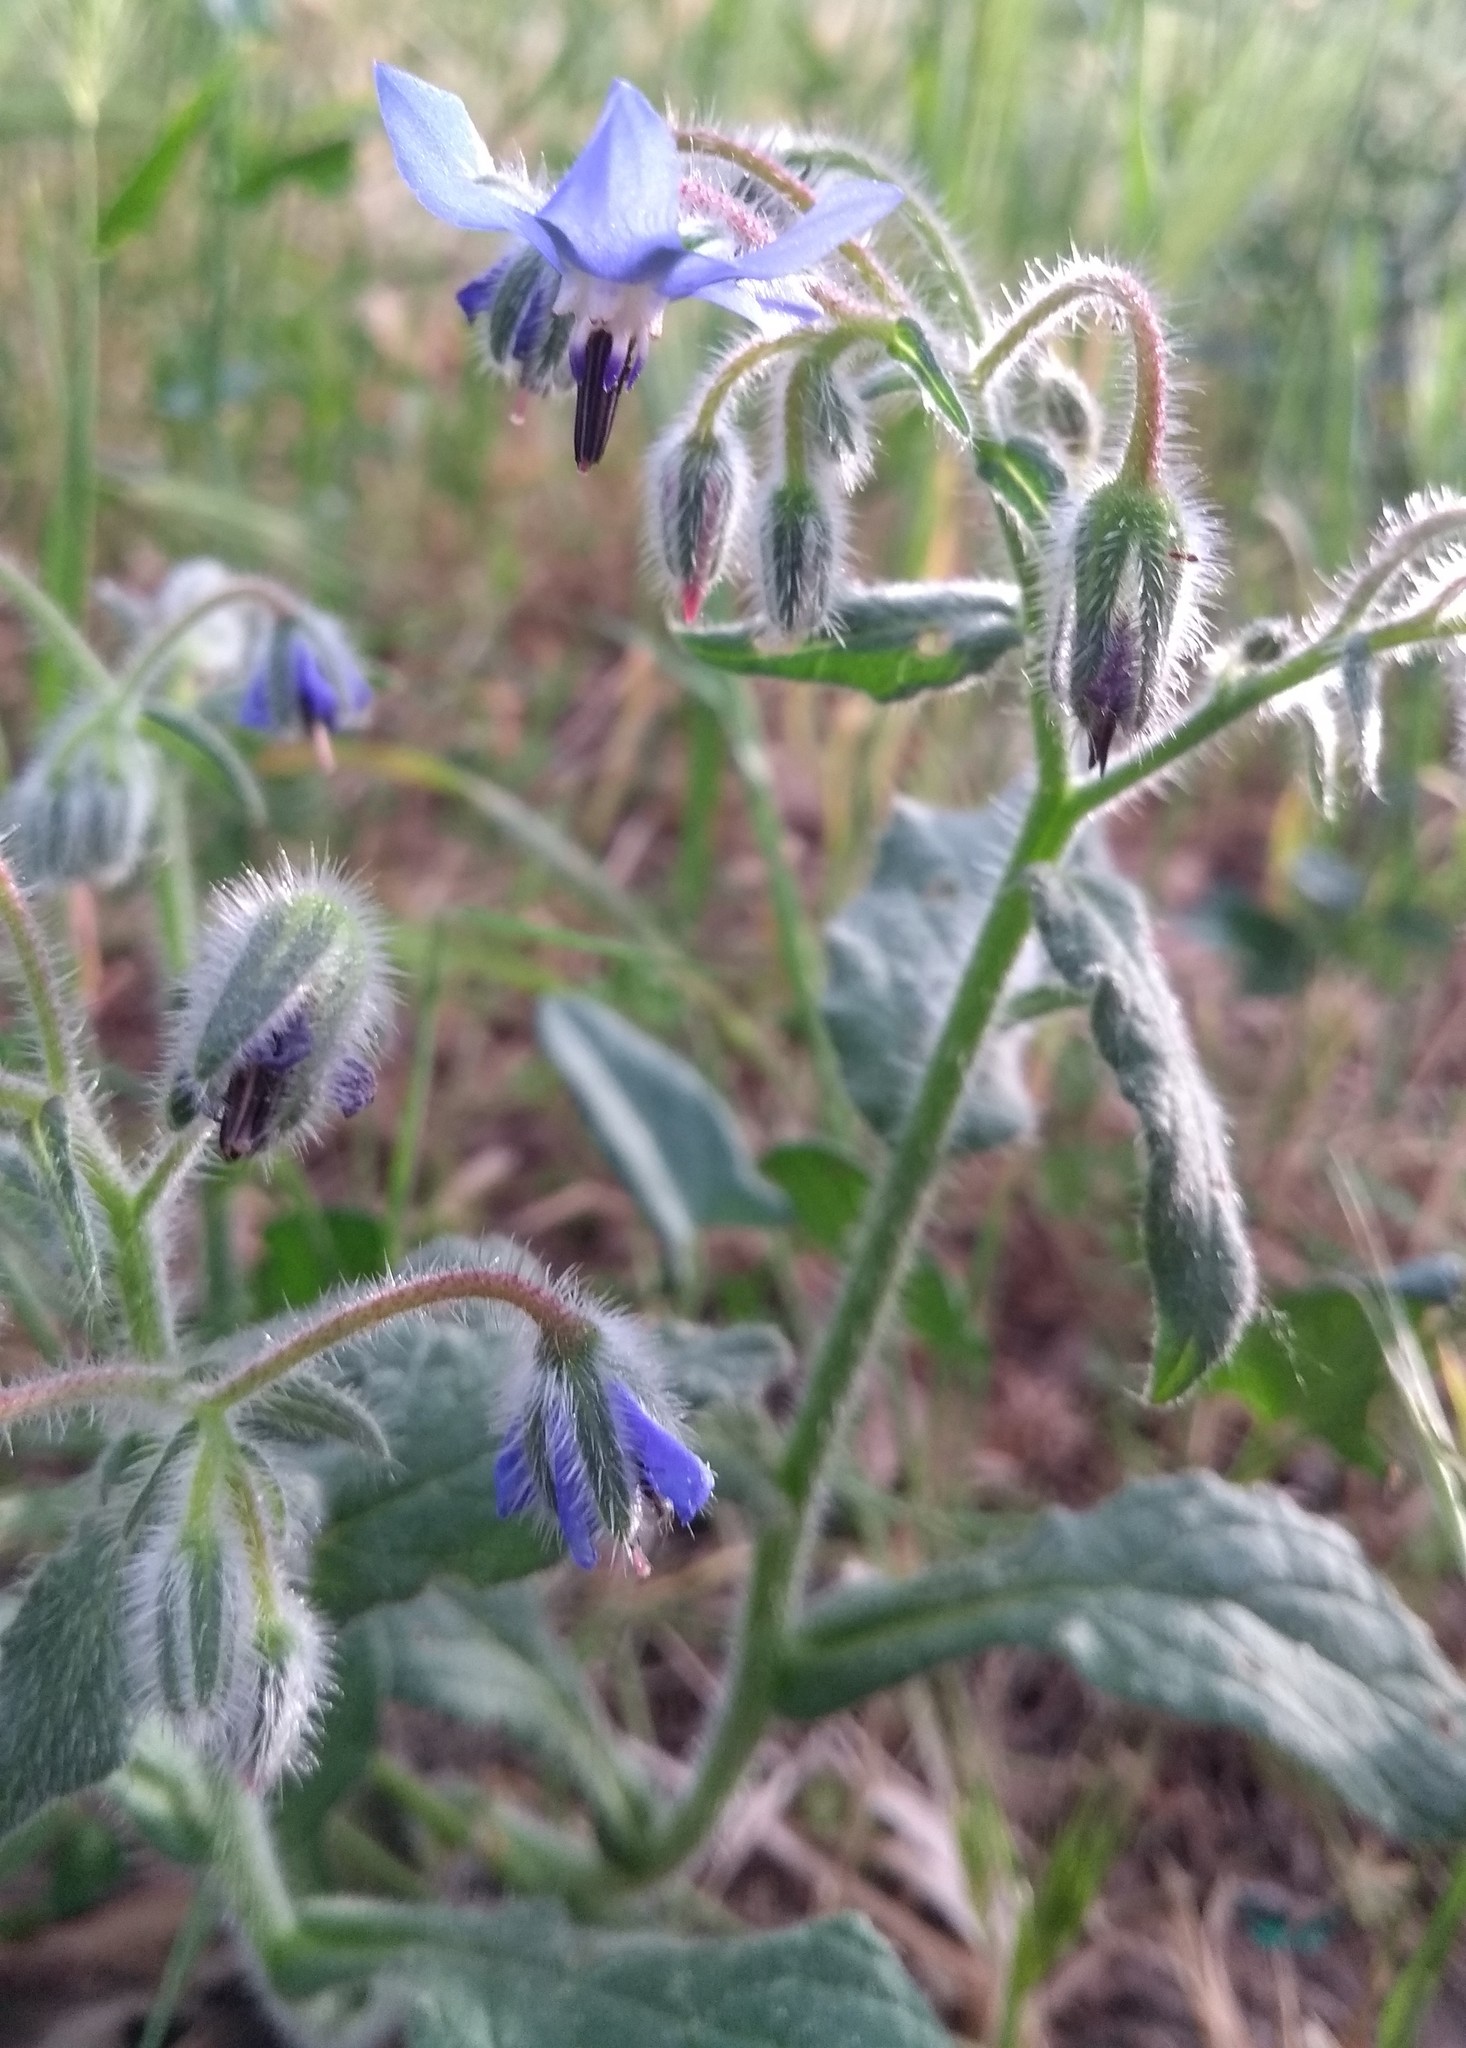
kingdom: Plantae
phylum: Tracheophyta
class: Magnoliopsida
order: Boraginales
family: Boraginaceae
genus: Borago
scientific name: Borago officinalis
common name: Borage
